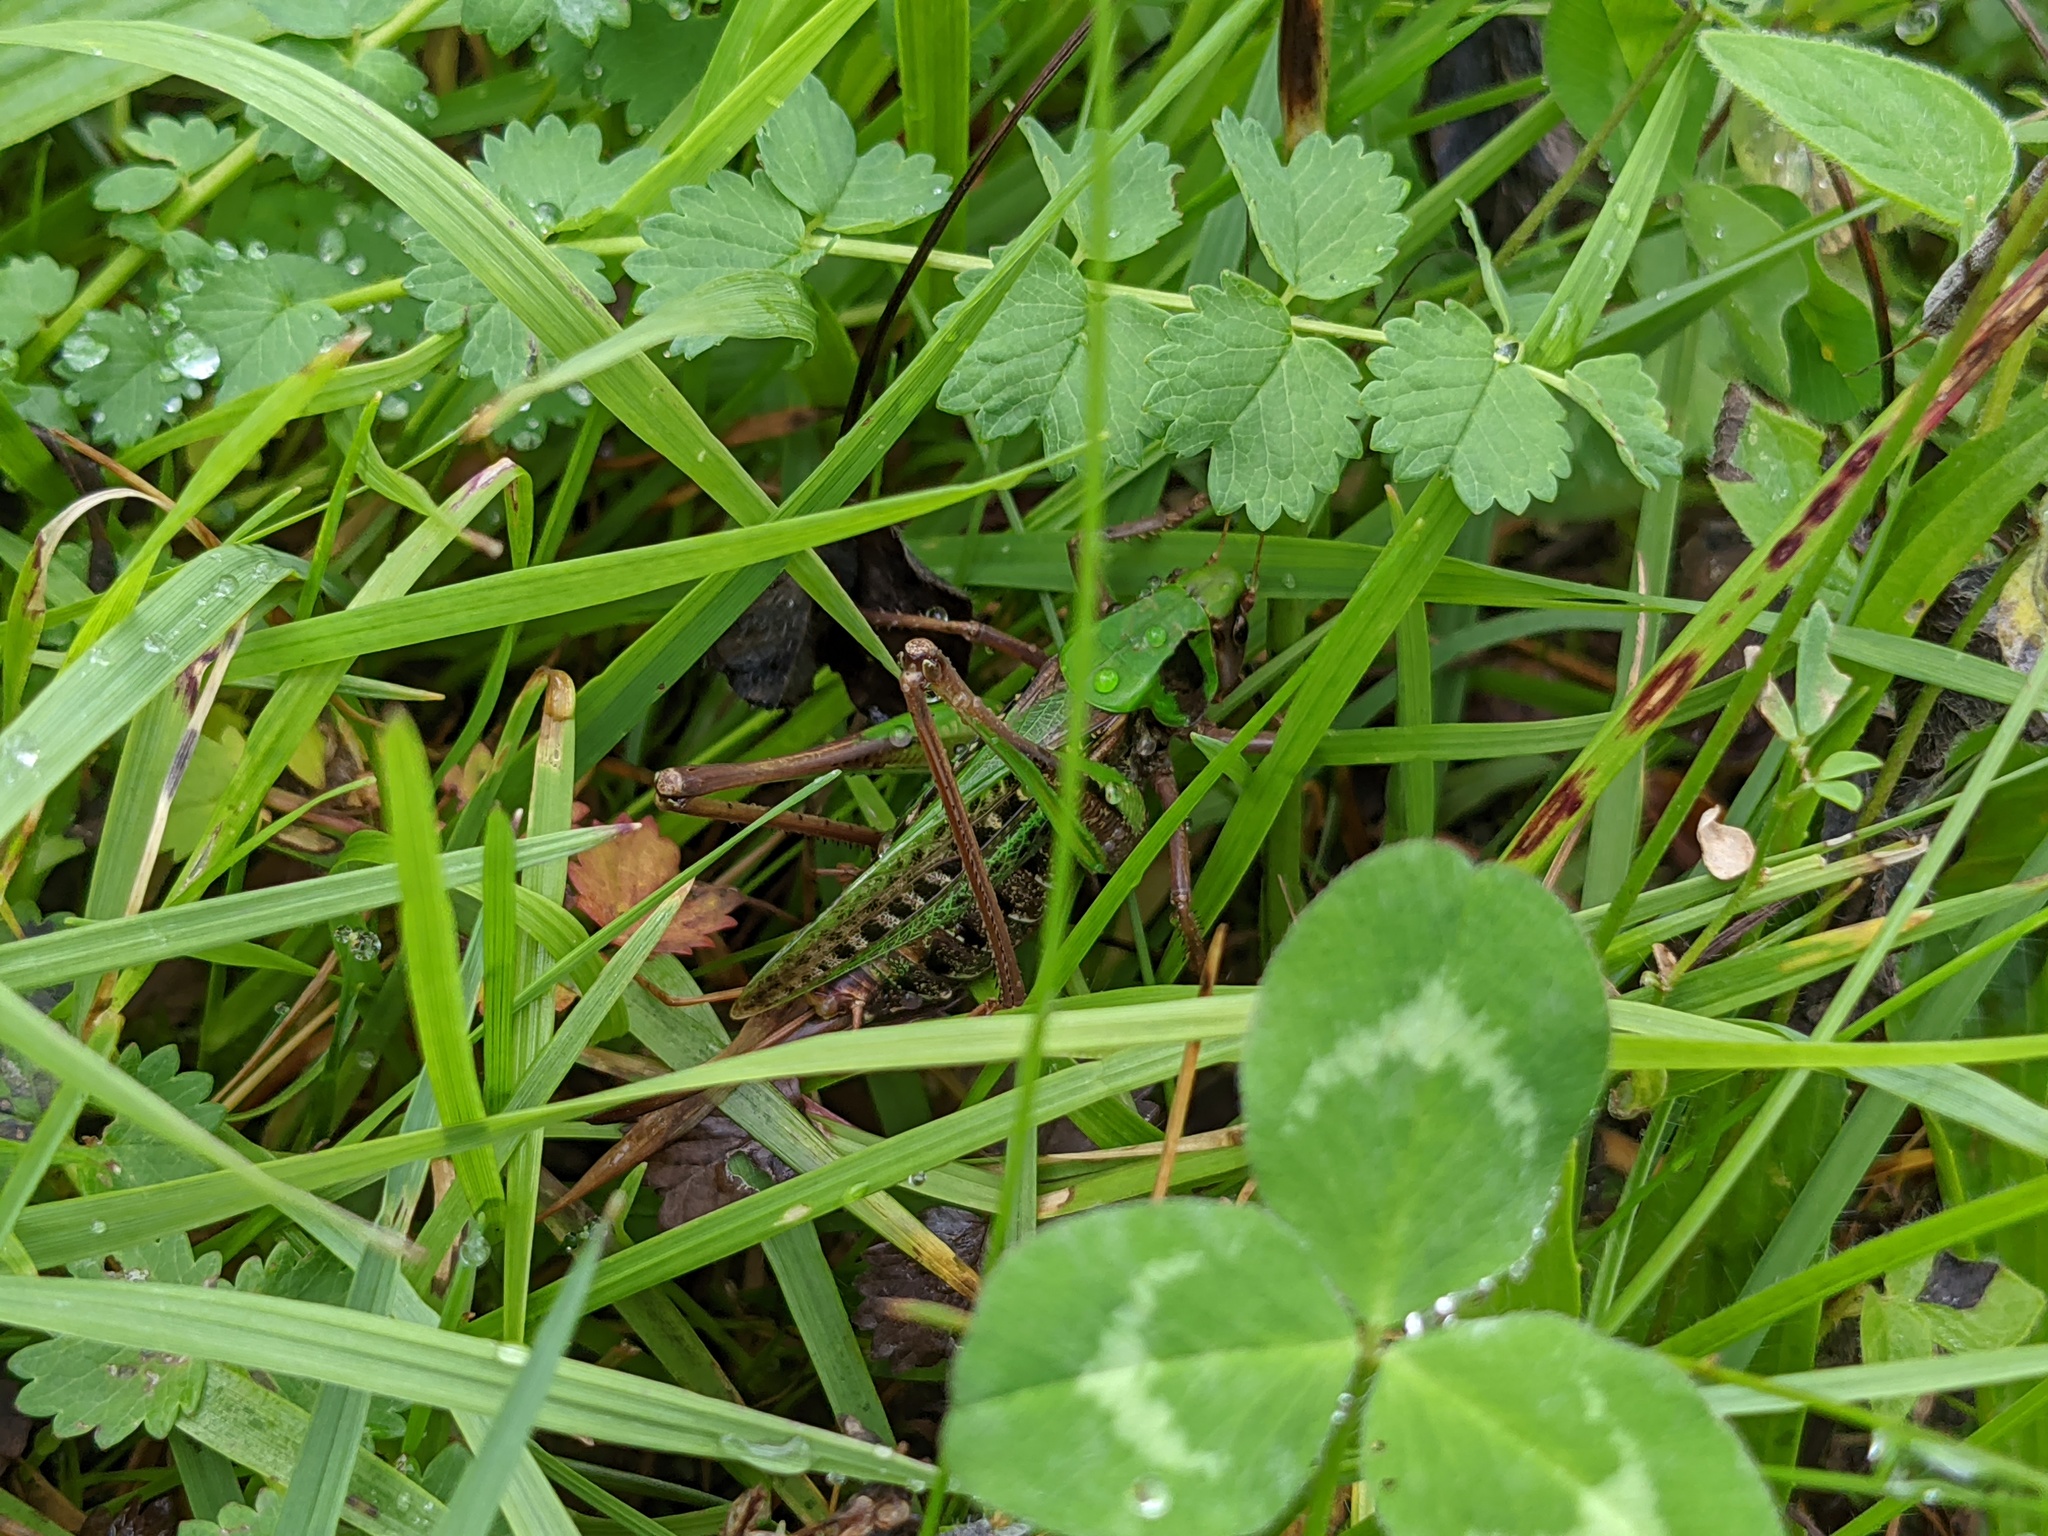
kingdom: Animalia
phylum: Arthropoda
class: Insecta
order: Orthoptera
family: Tettigoniidae
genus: Decticus
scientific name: Decticus verrucivorus
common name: Wart-biter
